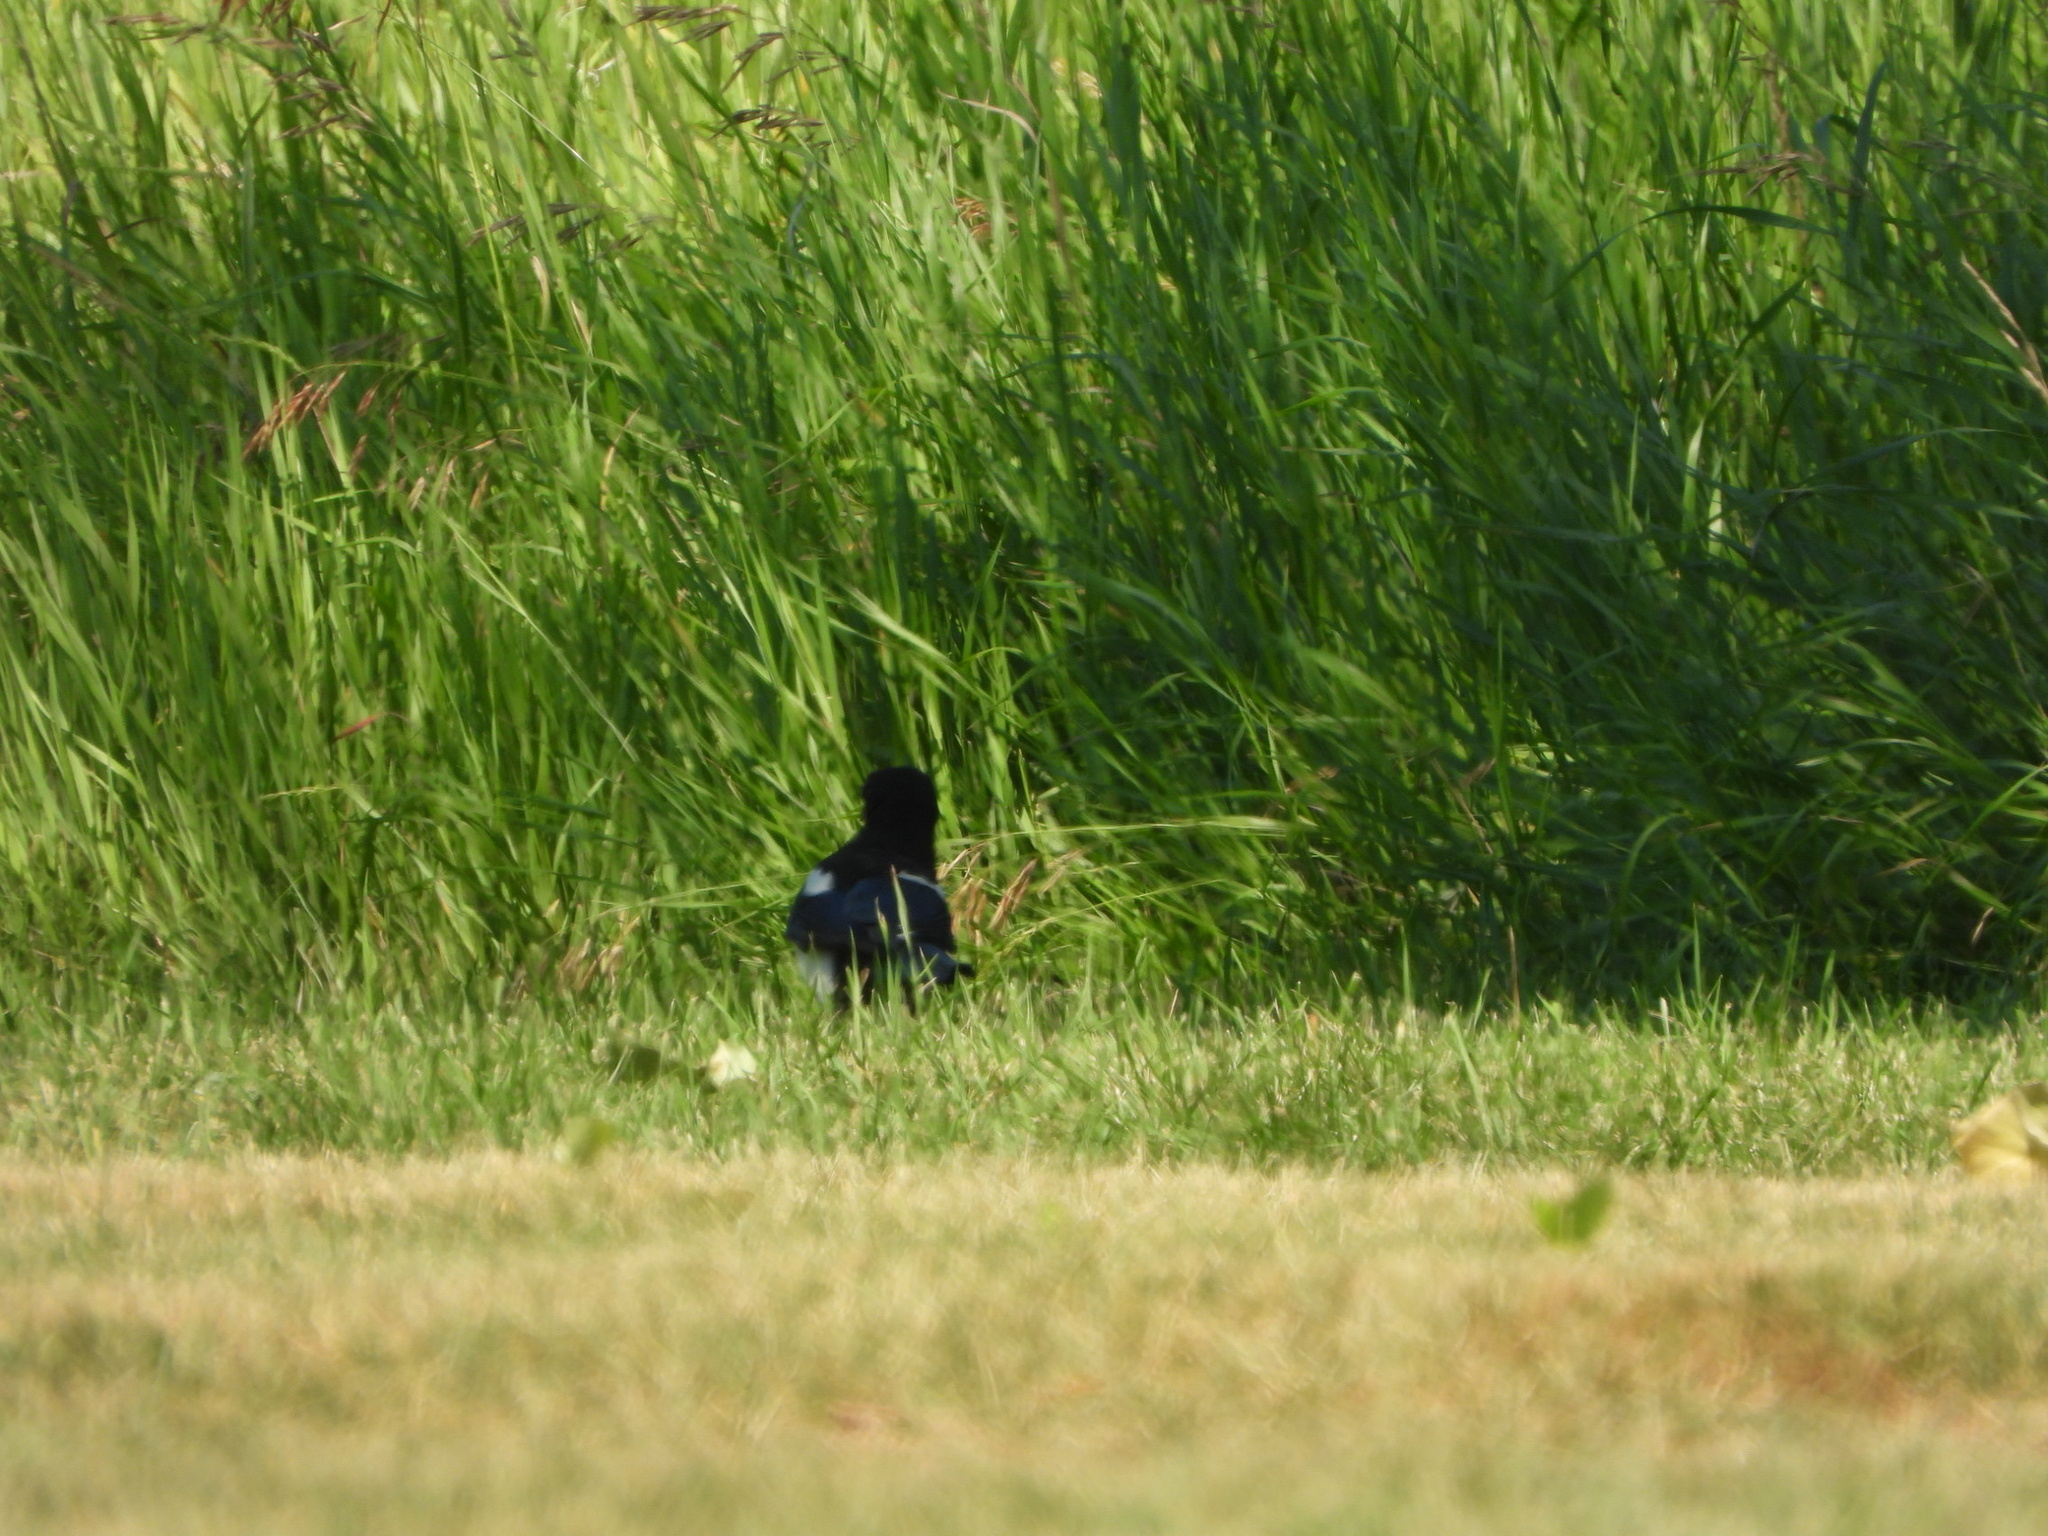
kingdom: Animalia
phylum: Chordata
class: Aves
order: Passeriformes
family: Corvidae
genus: Pica
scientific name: Pica hudsonia
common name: Black-billed magpie
